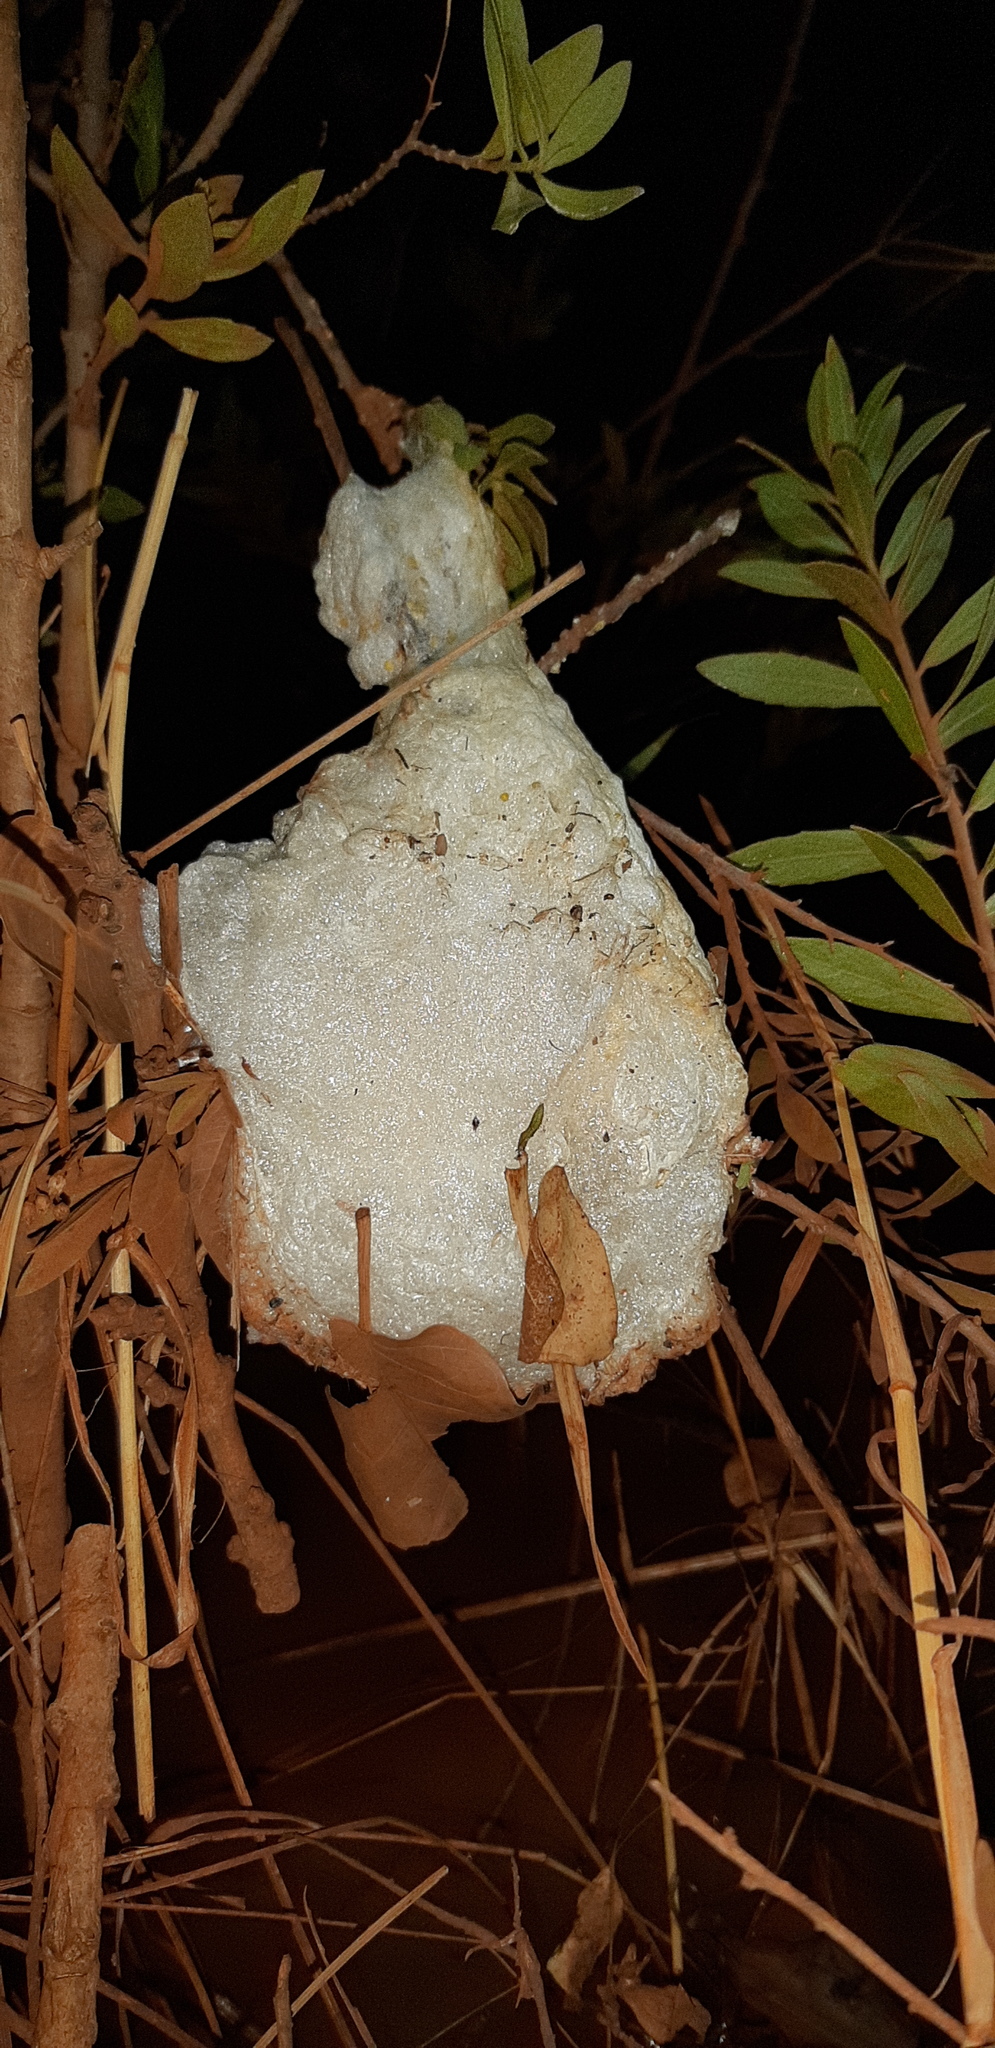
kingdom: Animalia
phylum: Chordata
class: Amphibia
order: Anura
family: Rhacophoridae
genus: Chiromantis
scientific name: Chiromantis xerampelina
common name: African gray treefrog
